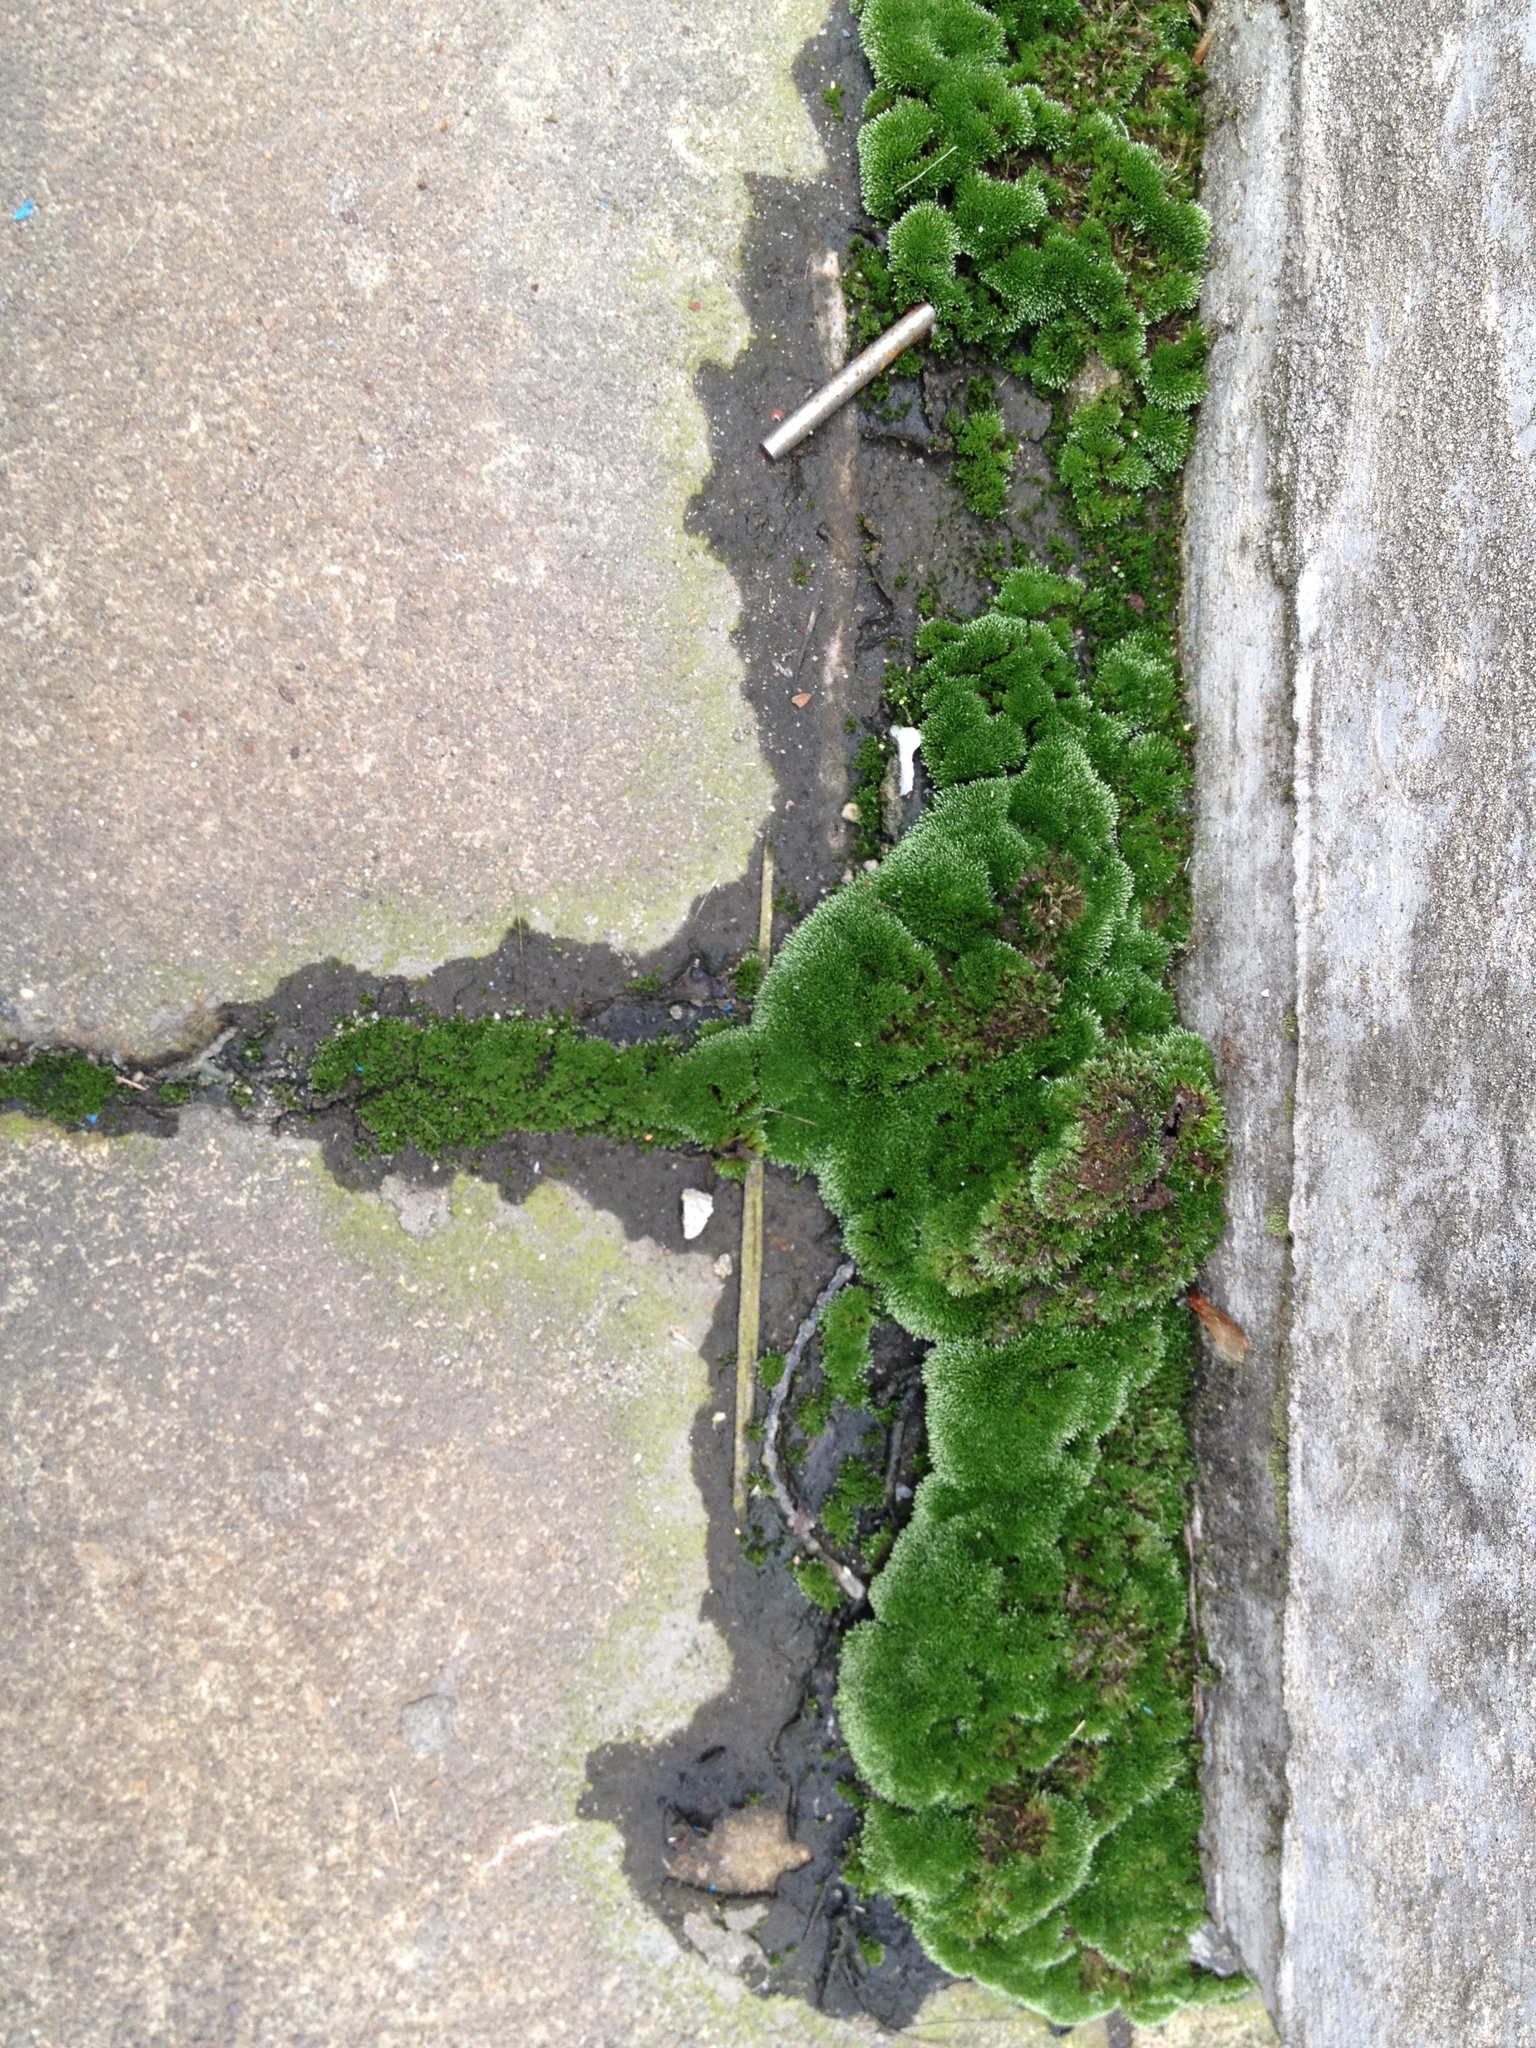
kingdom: Plantae
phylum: Bryophyta
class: Bryopsida
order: Bryales
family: Bryaceae
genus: Bryum
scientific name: Bryum argenteum
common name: Silver-moss
